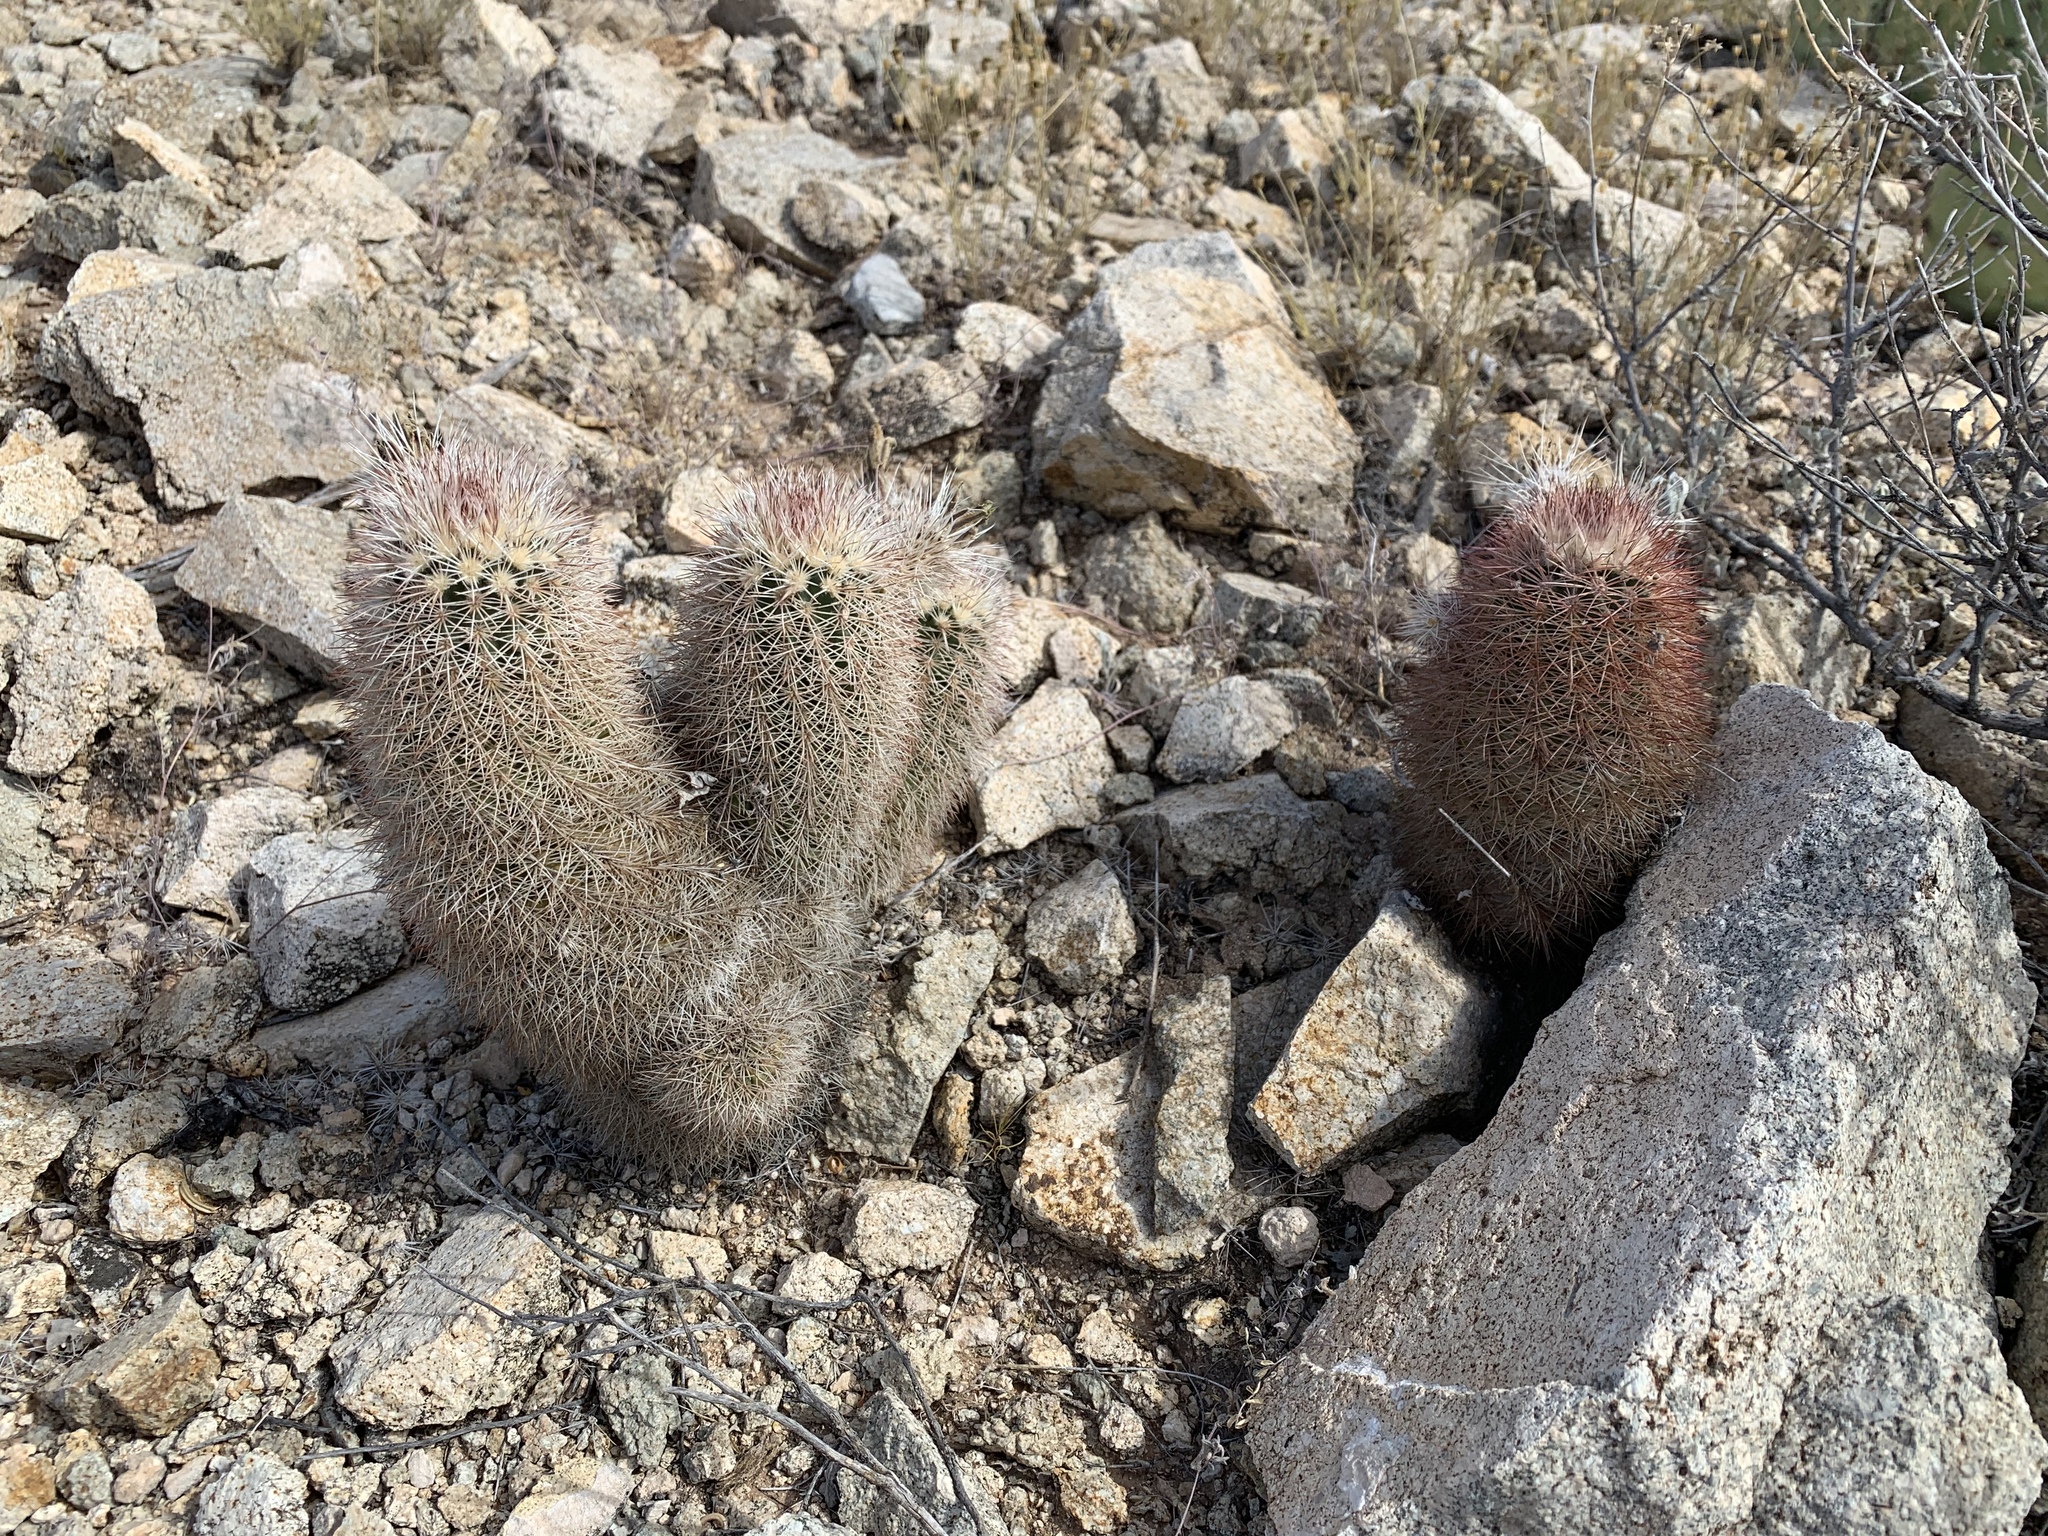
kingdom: Plantae
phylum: Tracheophyta
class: Magnoliopsida
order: Caryophyllales
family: Cactaceae
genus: Echinocereus
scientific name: Echinocereus dasyacanthus
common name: Spiny hedgehog cactus
